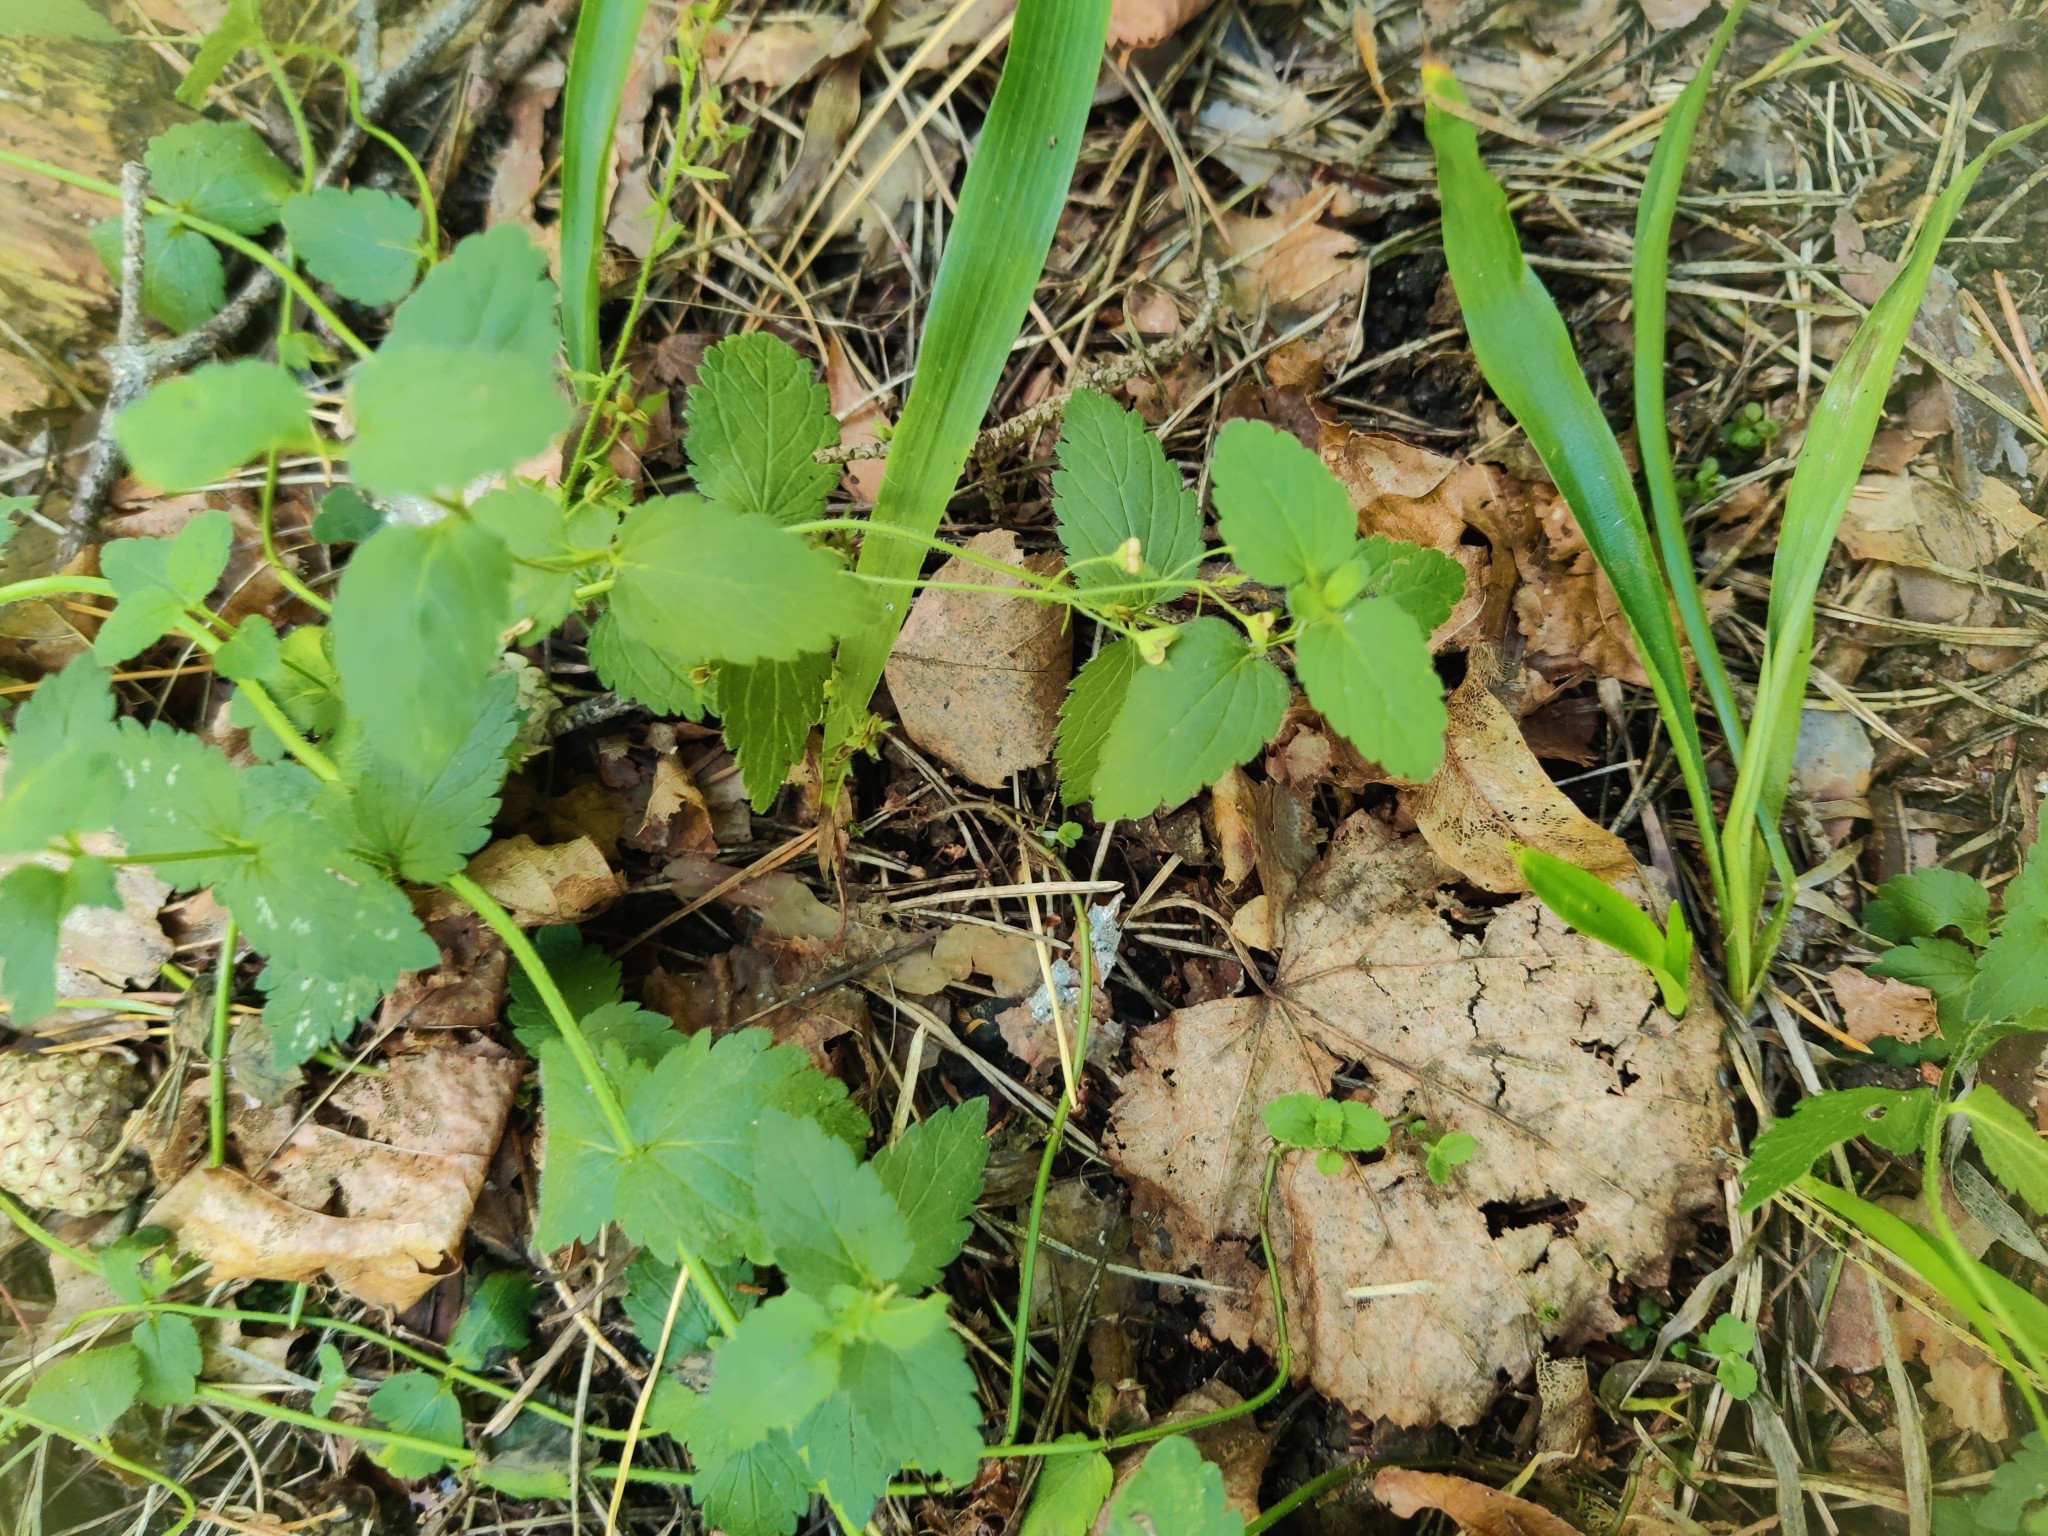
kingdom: Plantae
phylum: Tracheophyta
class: Magnoliopsida
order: Lamiales
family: Plantaginaceae
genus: Veronica
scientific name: Veronica chamaedrys
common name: Germander speedwell
